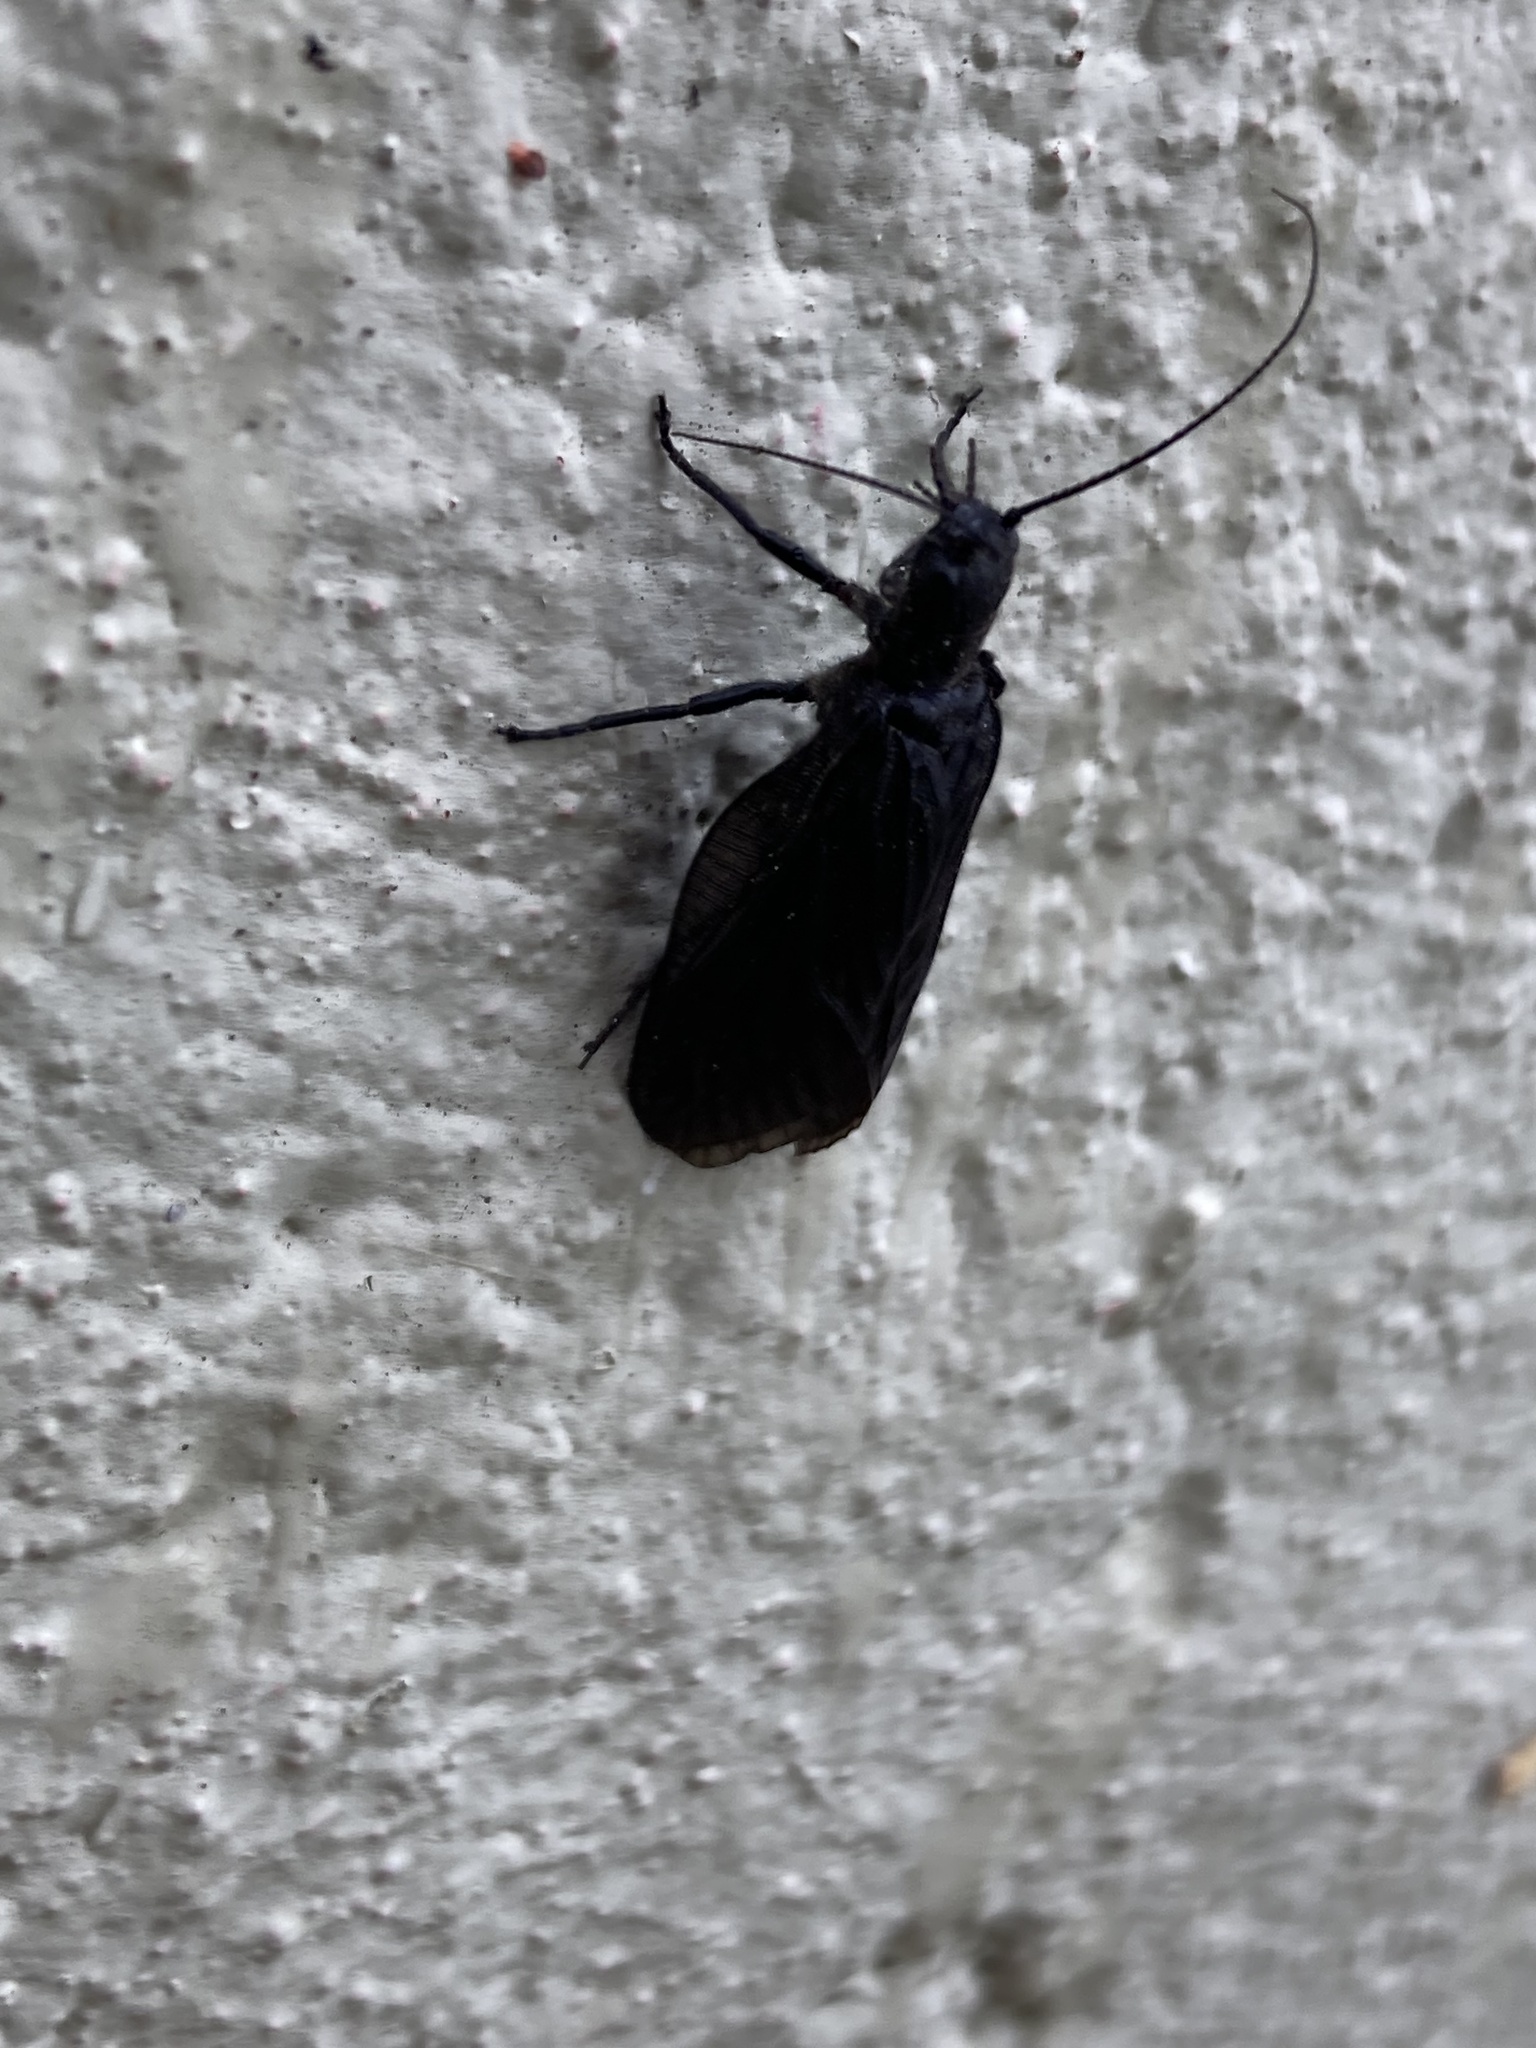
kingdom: Animalia
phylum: Arthropoda
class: Insecta
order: Megaloptera
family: Sialidae
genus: Sialis
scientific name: Sialis
